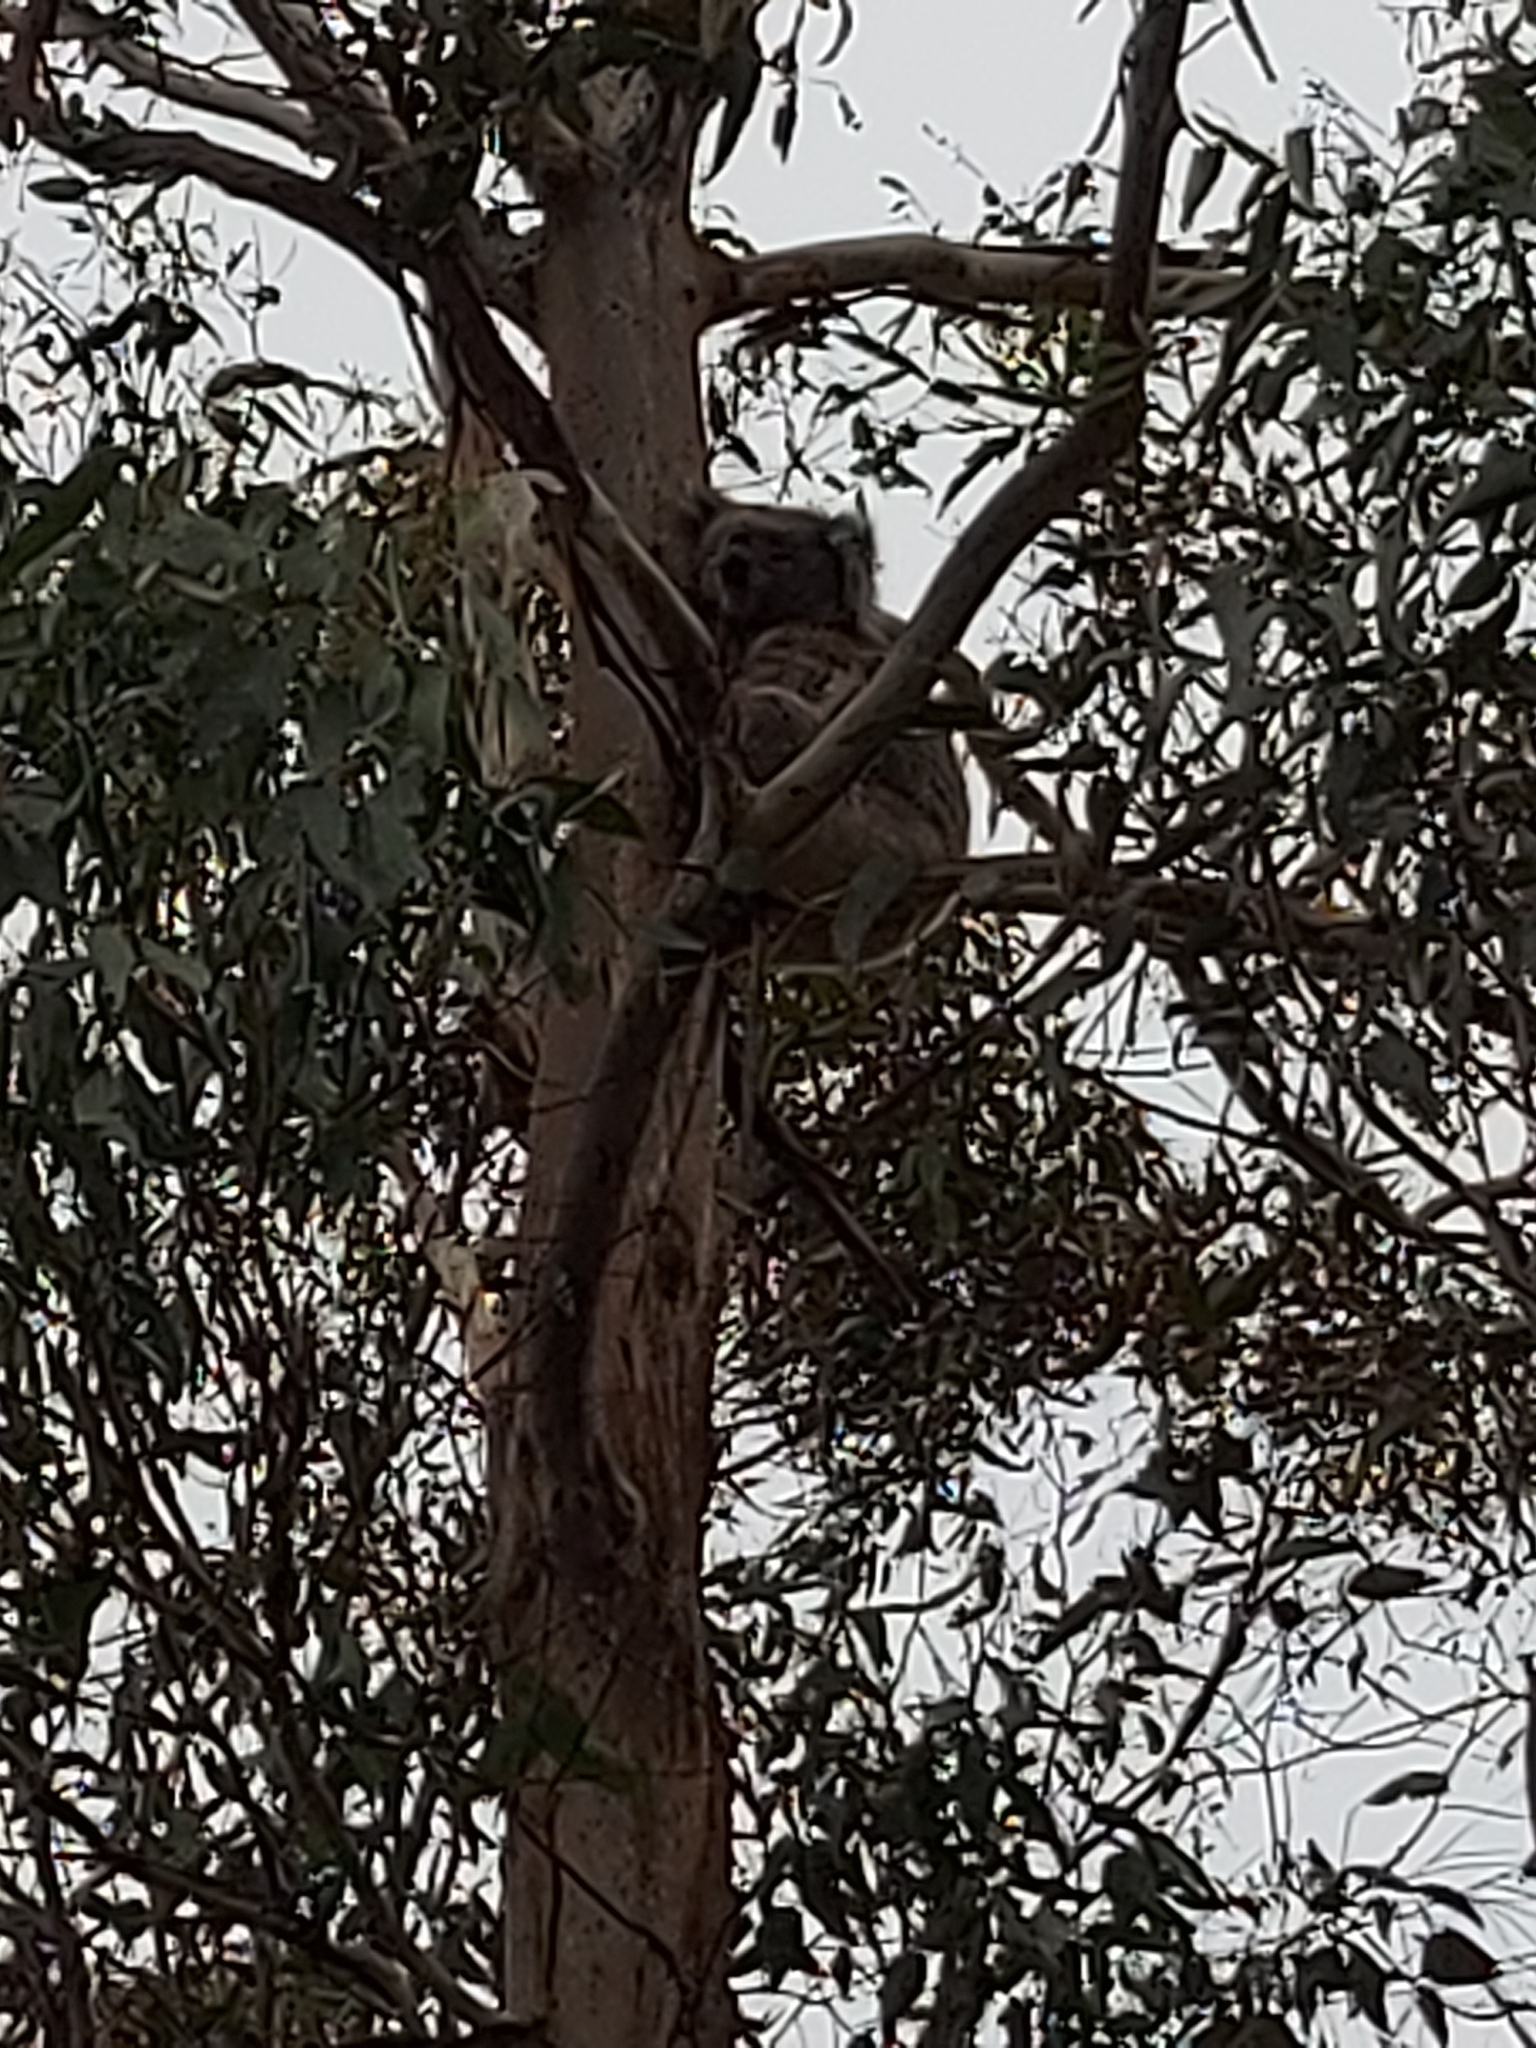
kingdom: Animalia
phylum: Chordata
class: Mammalia
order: Diprotodontia
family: Phascolarctidae
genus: Phascolarctos
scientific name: Phascolarctos cinereus
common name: Koala
